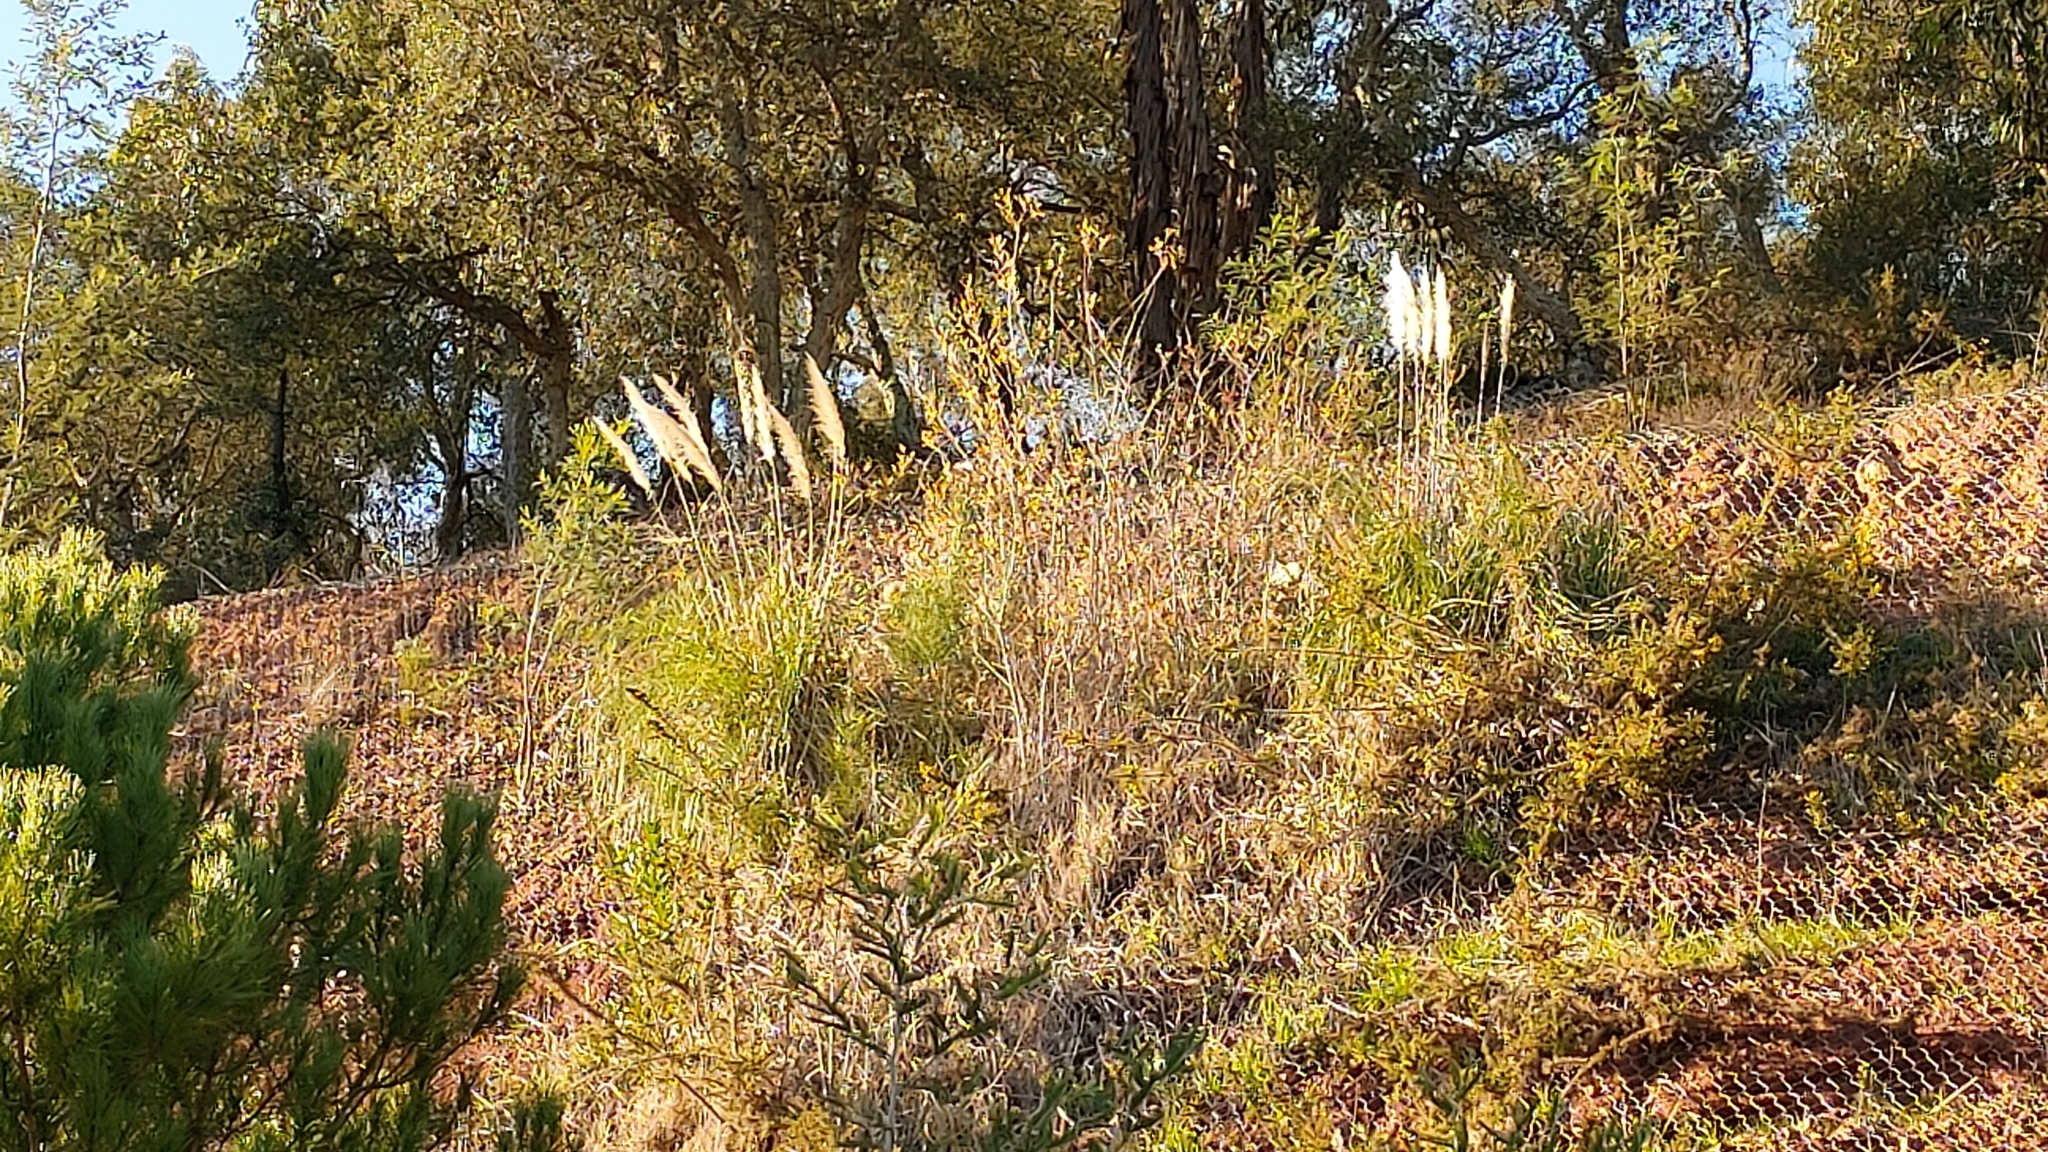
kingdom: Plantae
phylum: Tracheophyta
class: Liliopsida
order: Poales
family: Poaceae
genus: Cortaderia
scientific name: Cortaderia selloana
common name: Uruguayan pampas grass
